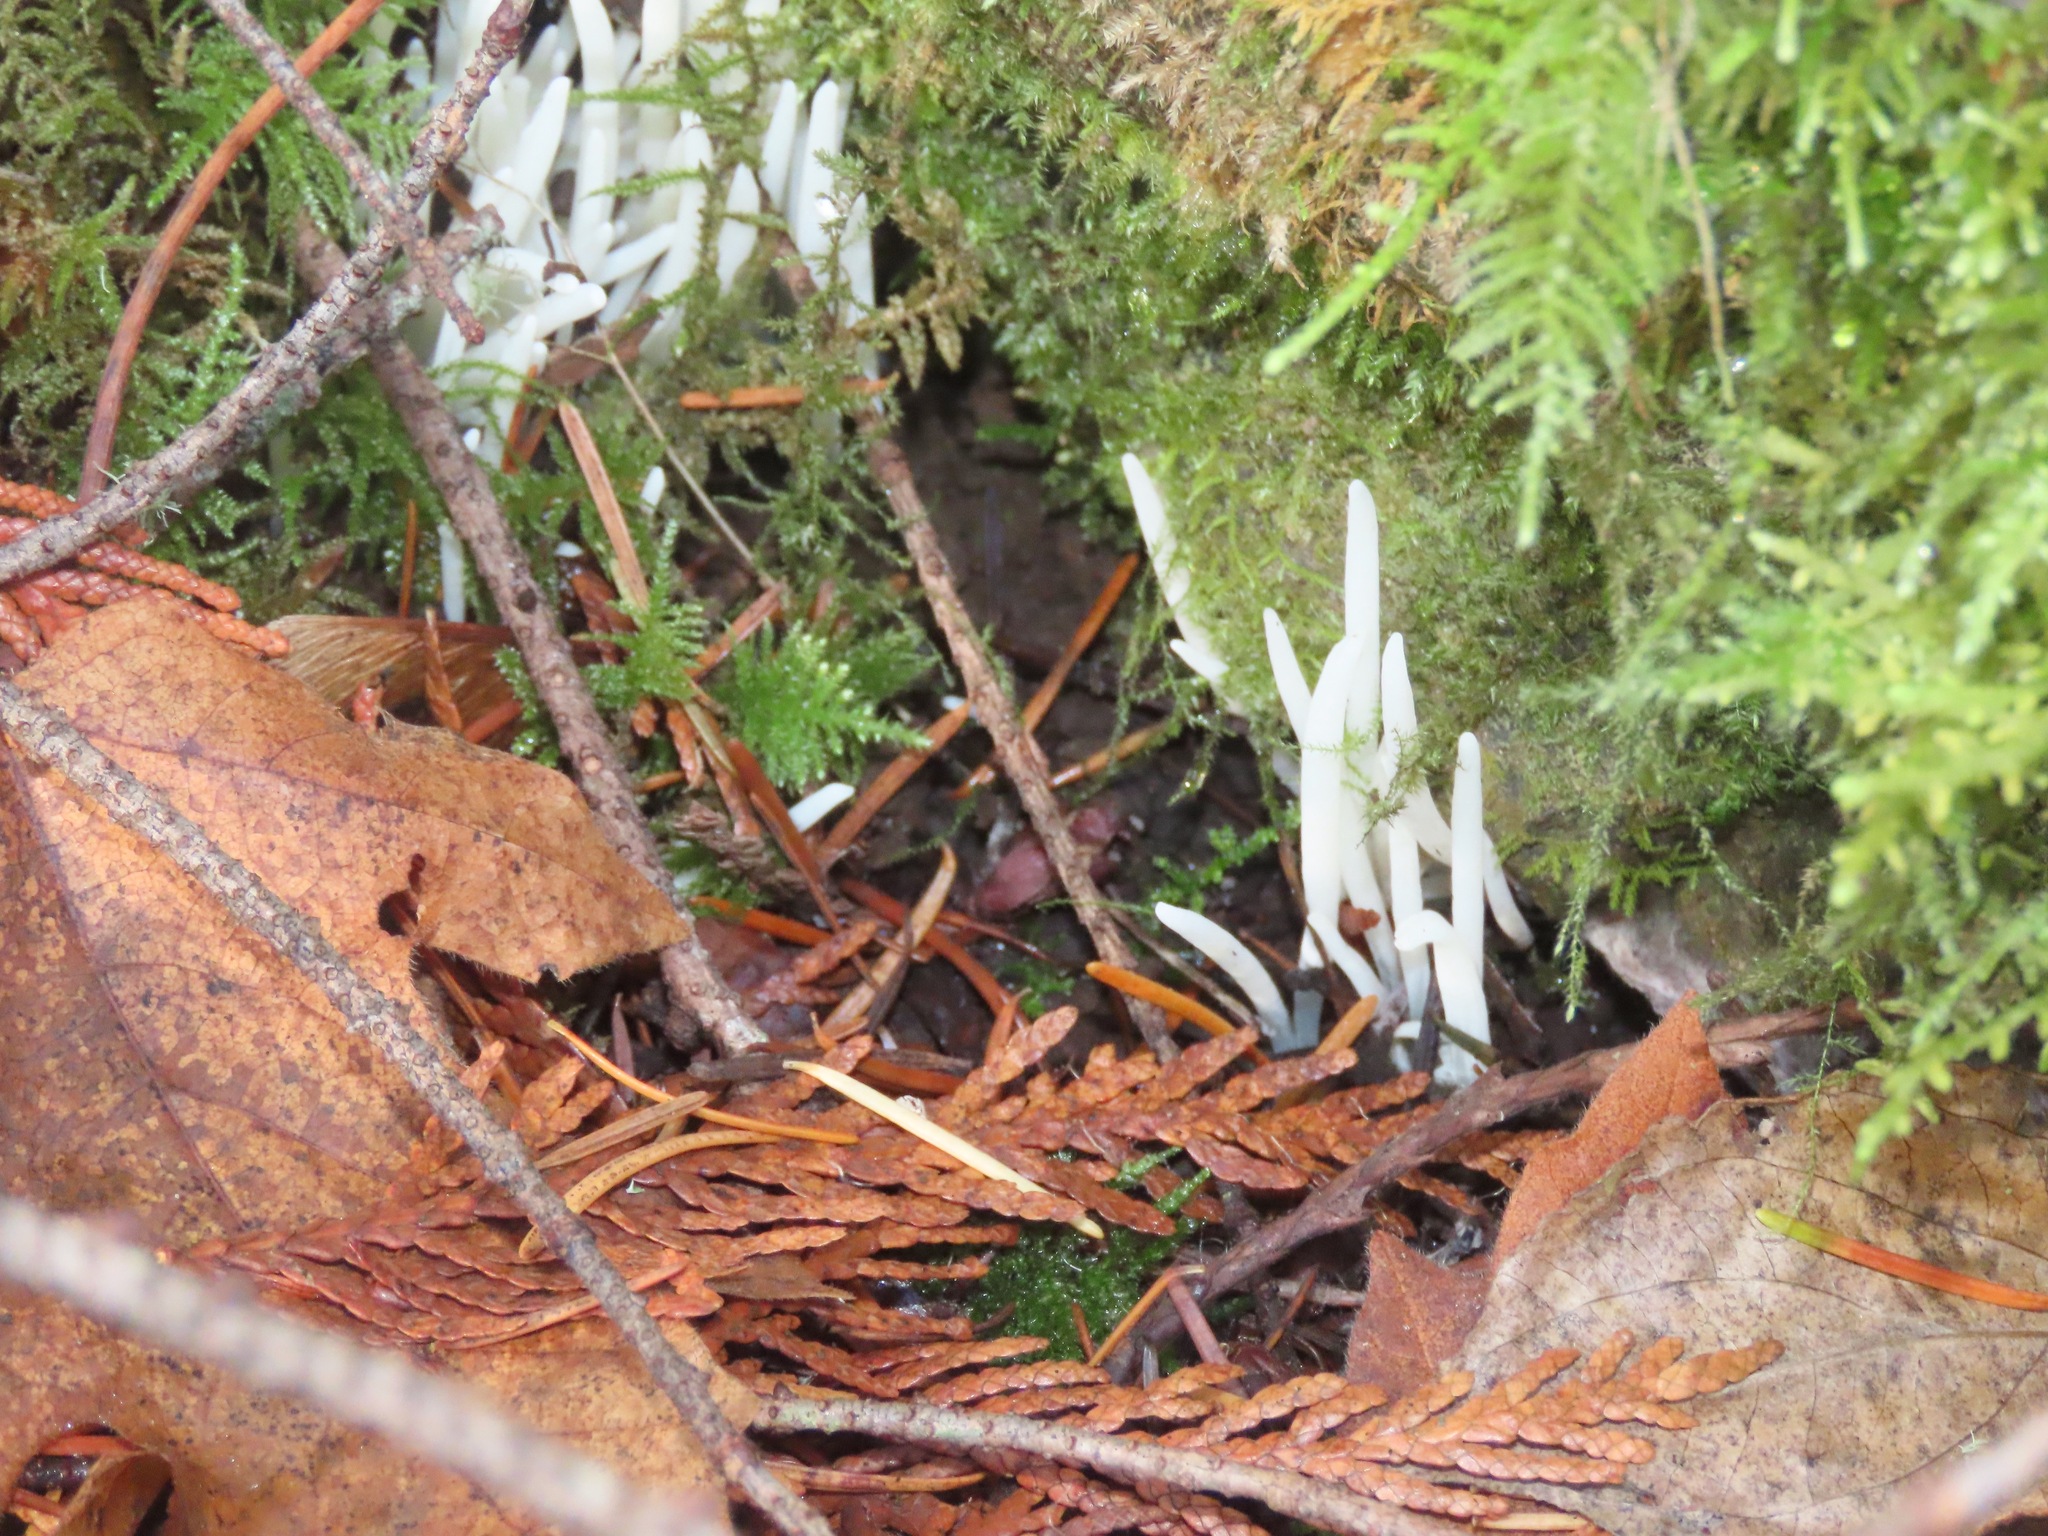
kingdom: Fungi
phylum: Basidiomycota
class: Agaricomycetes
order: Agaricales
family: Clavariaceae
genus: Clavaria
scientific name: Clavaria fragilis
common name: White spindles
